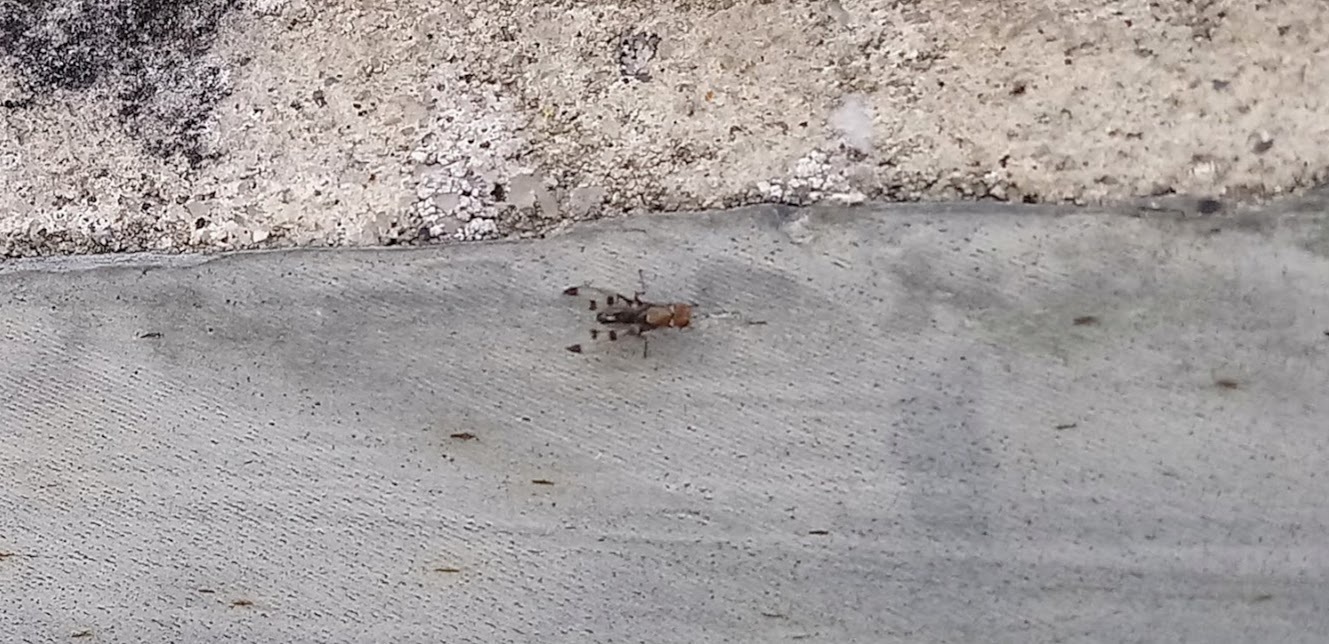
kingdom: Animalia
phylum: Arthropoda
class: Insecta
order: Diptera
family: Opomyzidae
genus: Geomyza
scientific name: Geomyza tripunctata
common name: Cereal fly
